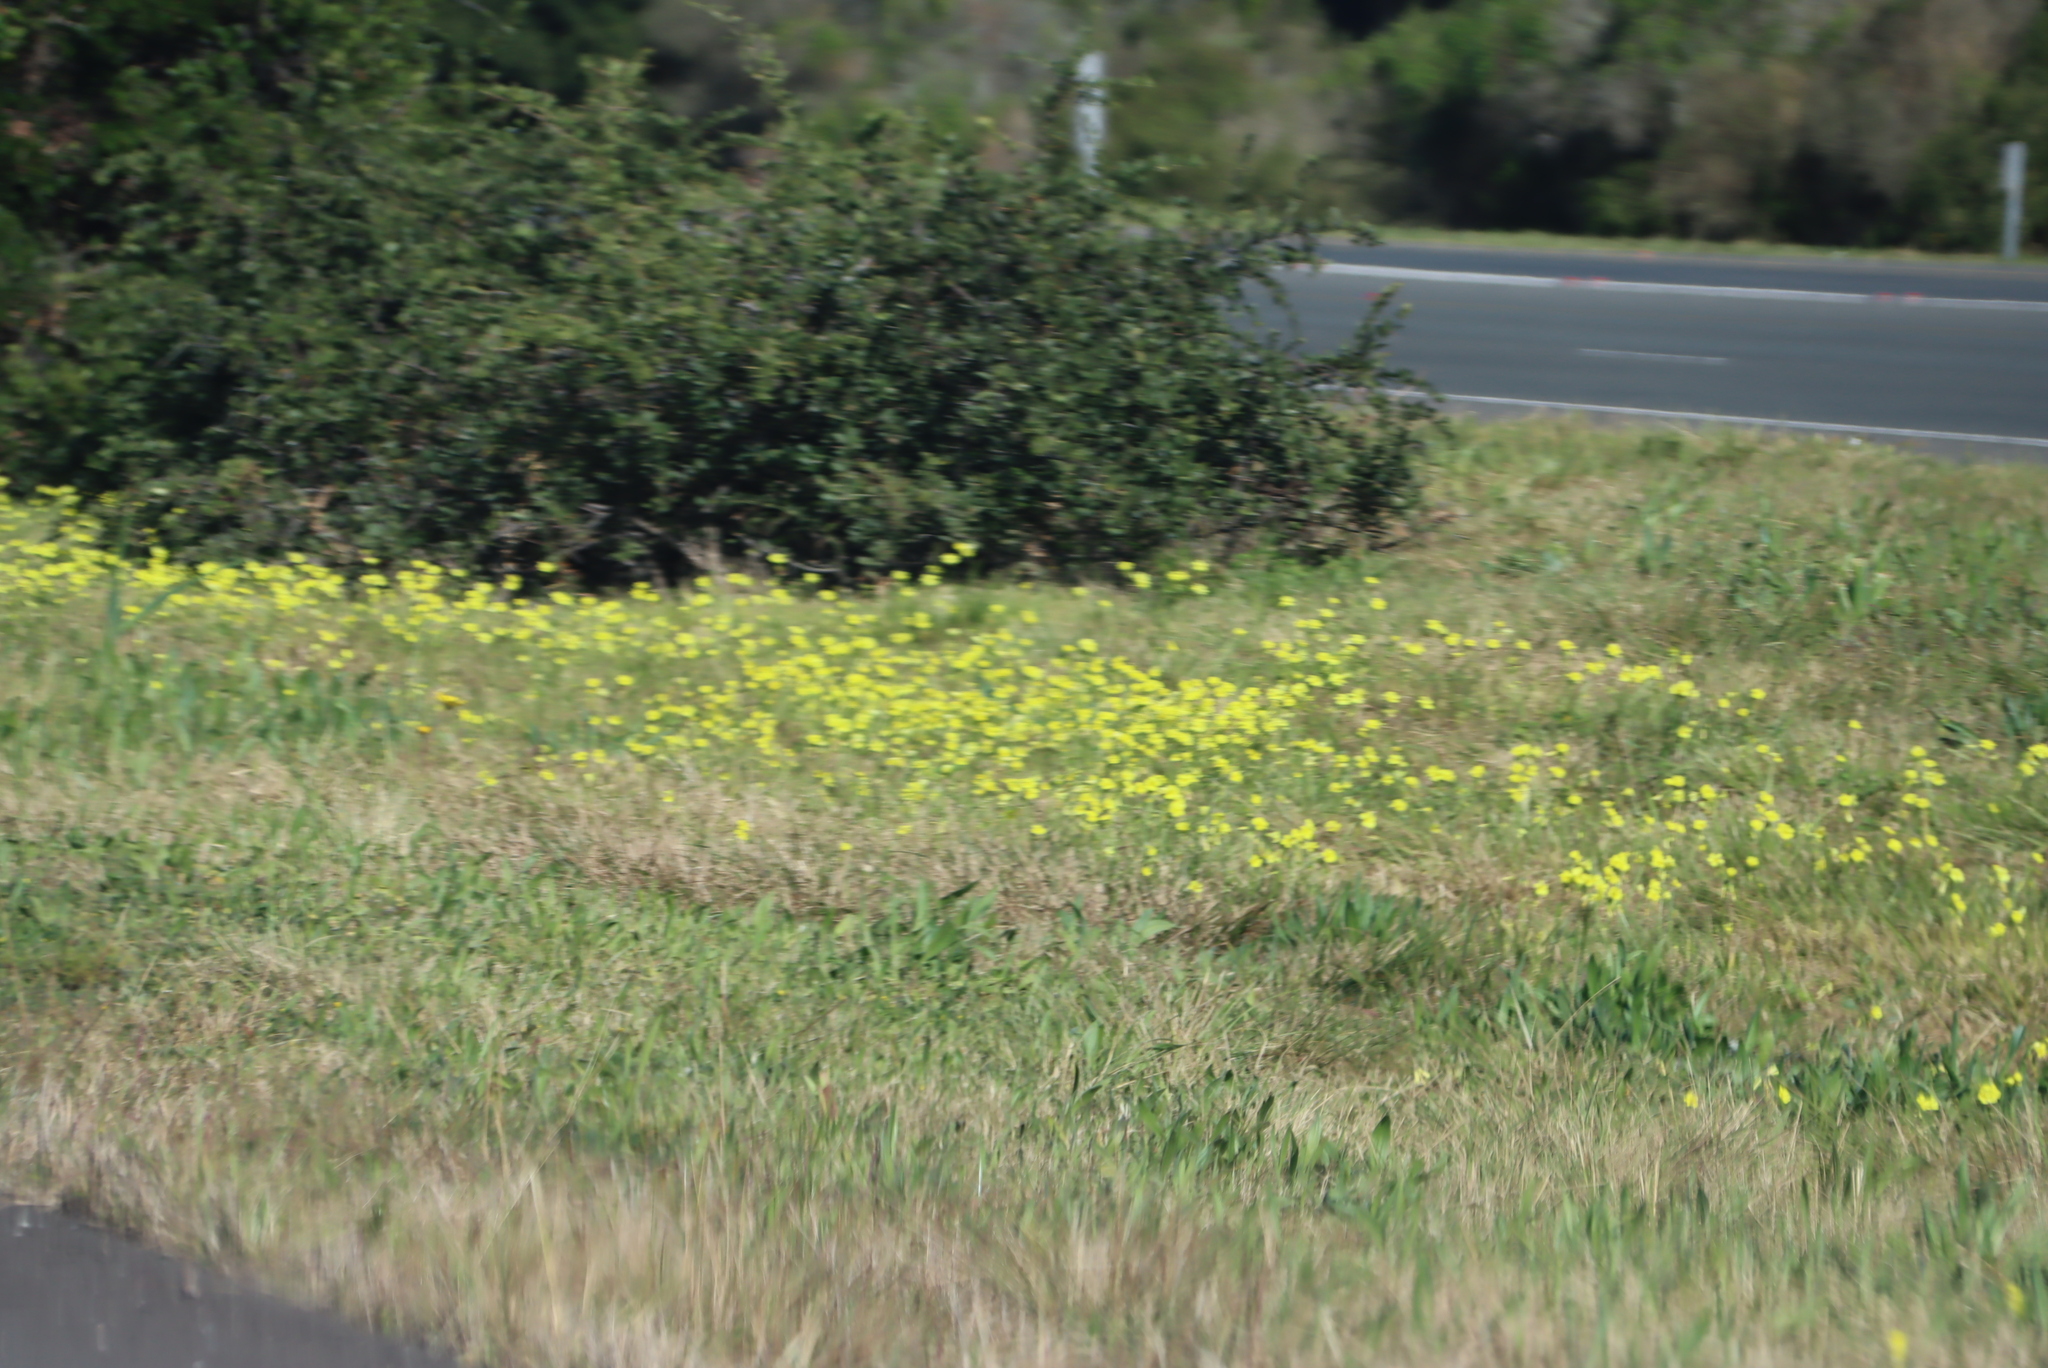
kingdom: Plantae
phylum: Tracheophyta
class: Magnoliopsida
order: Oxalidales
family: Oxalidaceae
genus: Oxalis
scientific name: Oxalis pes-caprae
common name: Bermuda-buttercup
